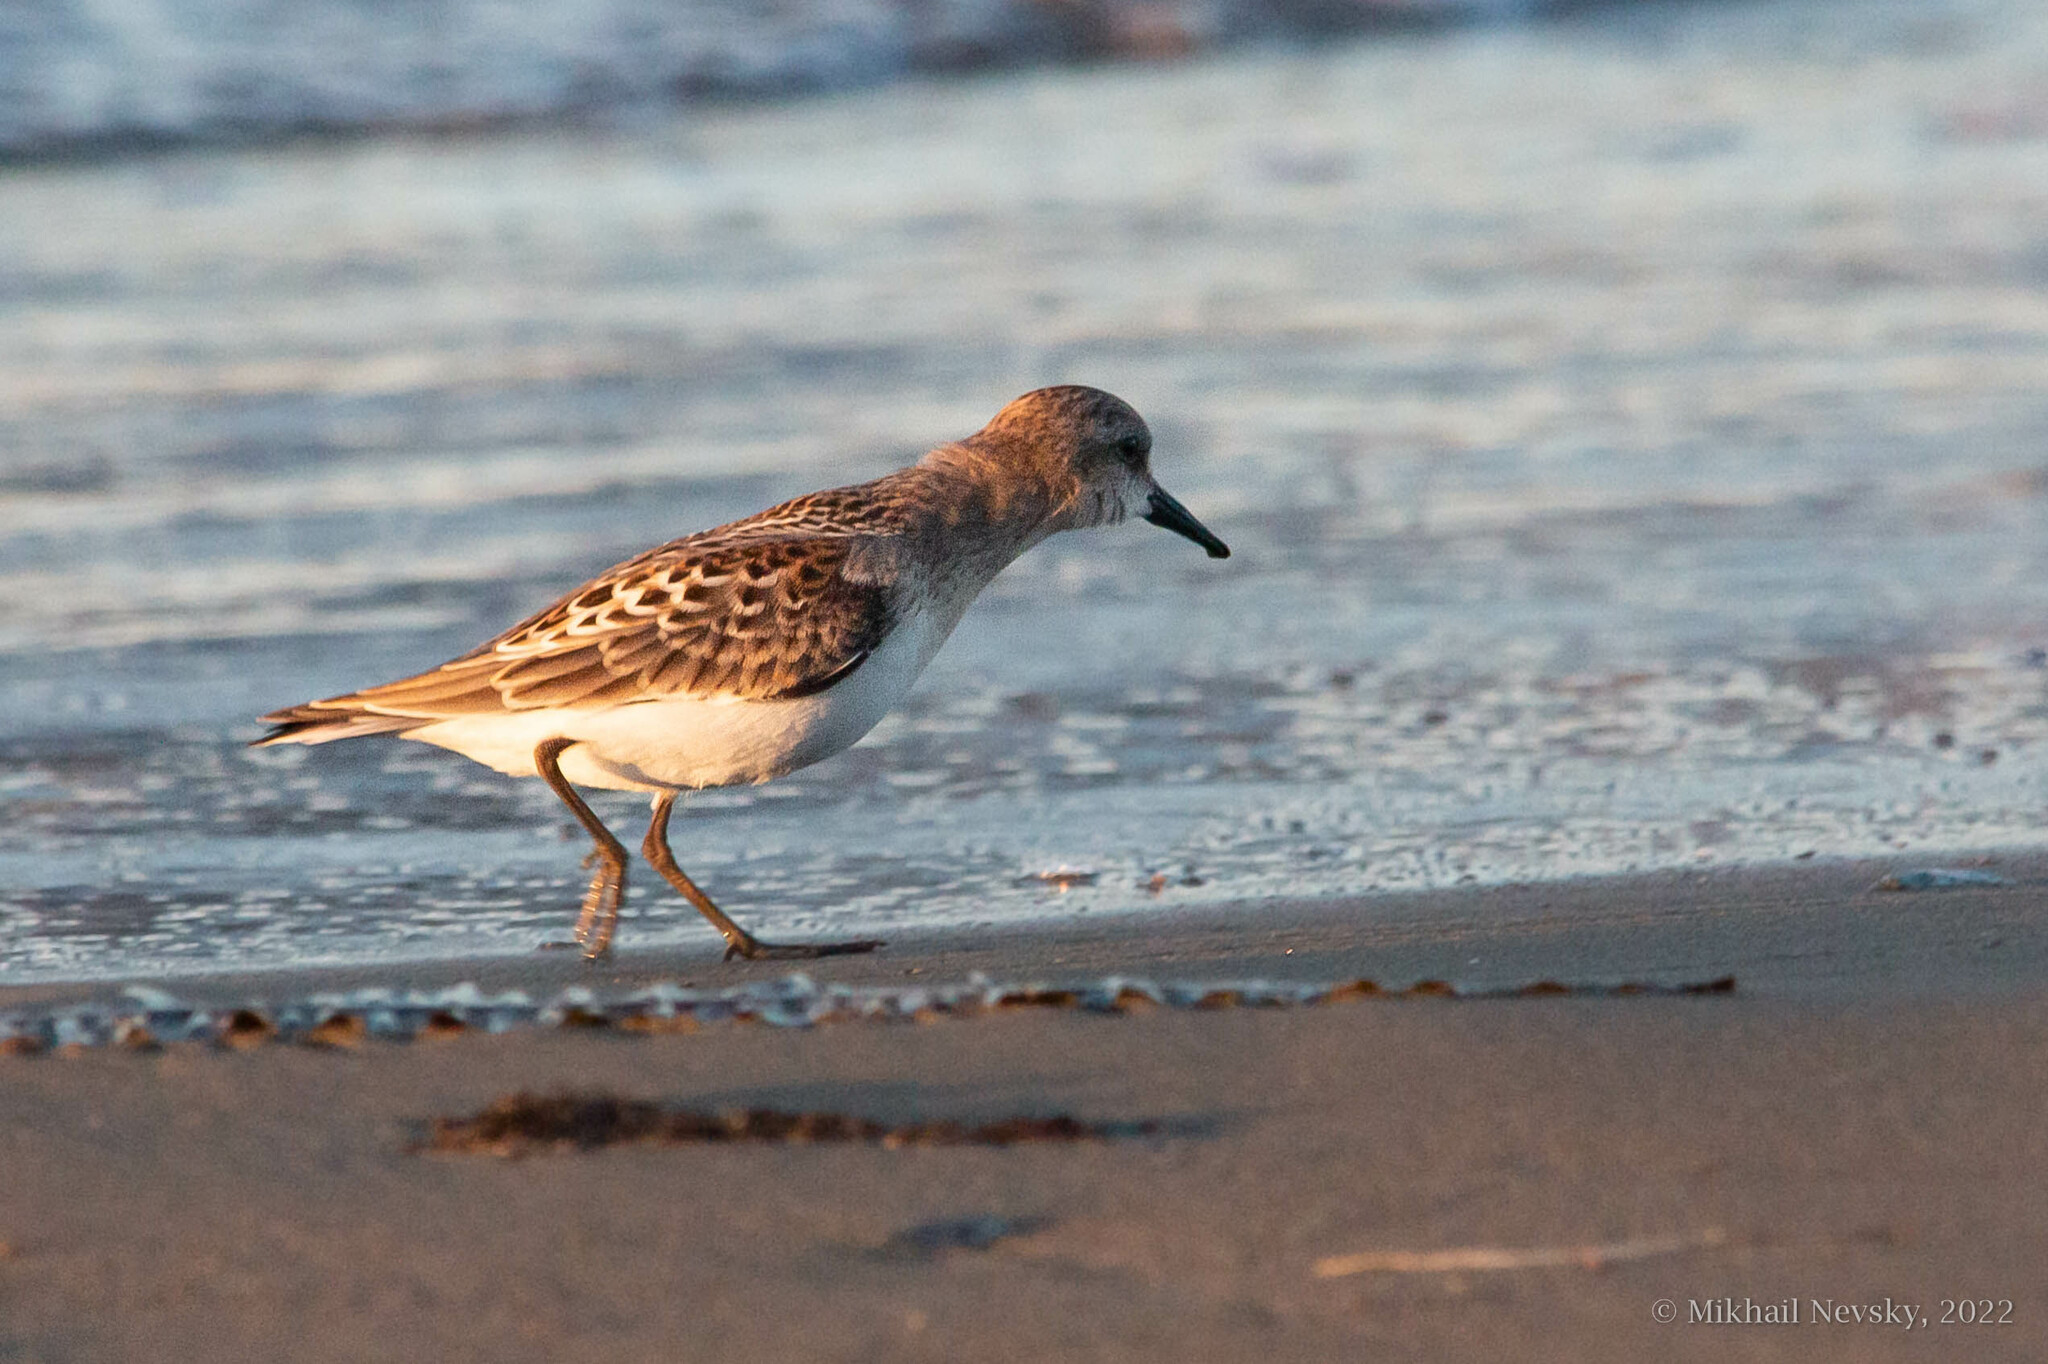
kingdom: Animalia
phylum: Chordata
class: Aves
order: Charadriiformes
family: Scolopacidae
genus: Calidris
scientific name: Calidris ruficollis
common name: Red-necked stint
